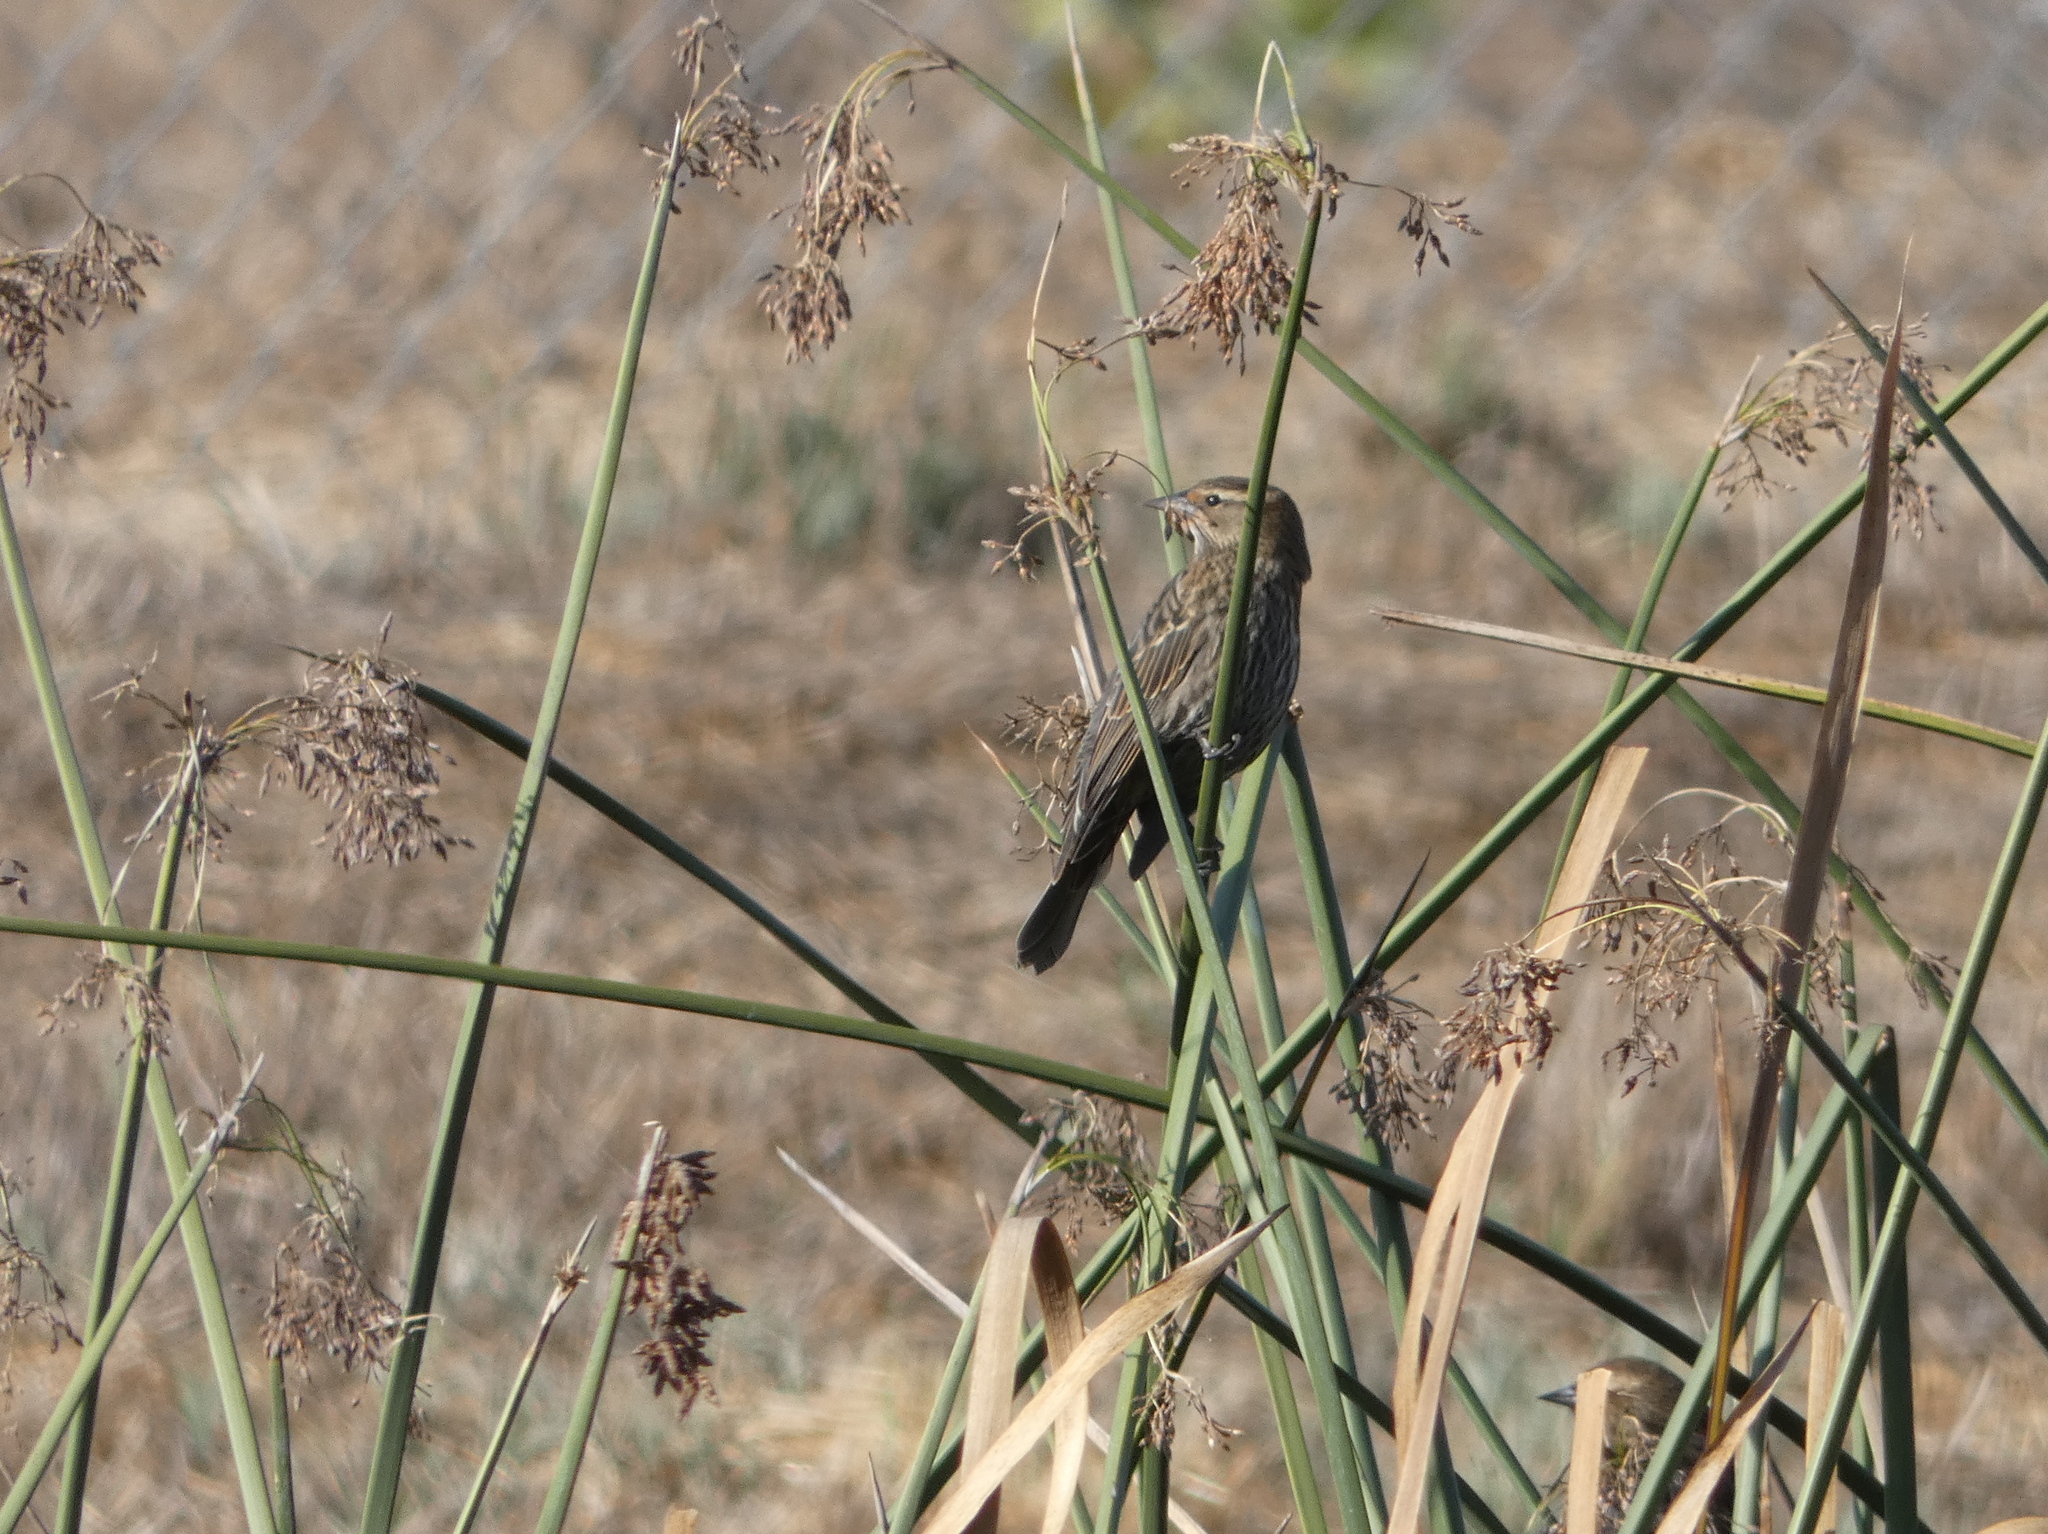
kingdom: Animalia
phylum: Chordata
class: Aves
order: Passeriformes
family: Icteridae
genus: Agelaius
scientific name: Agelaius phoeniceus
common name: Red-winged blackbird
